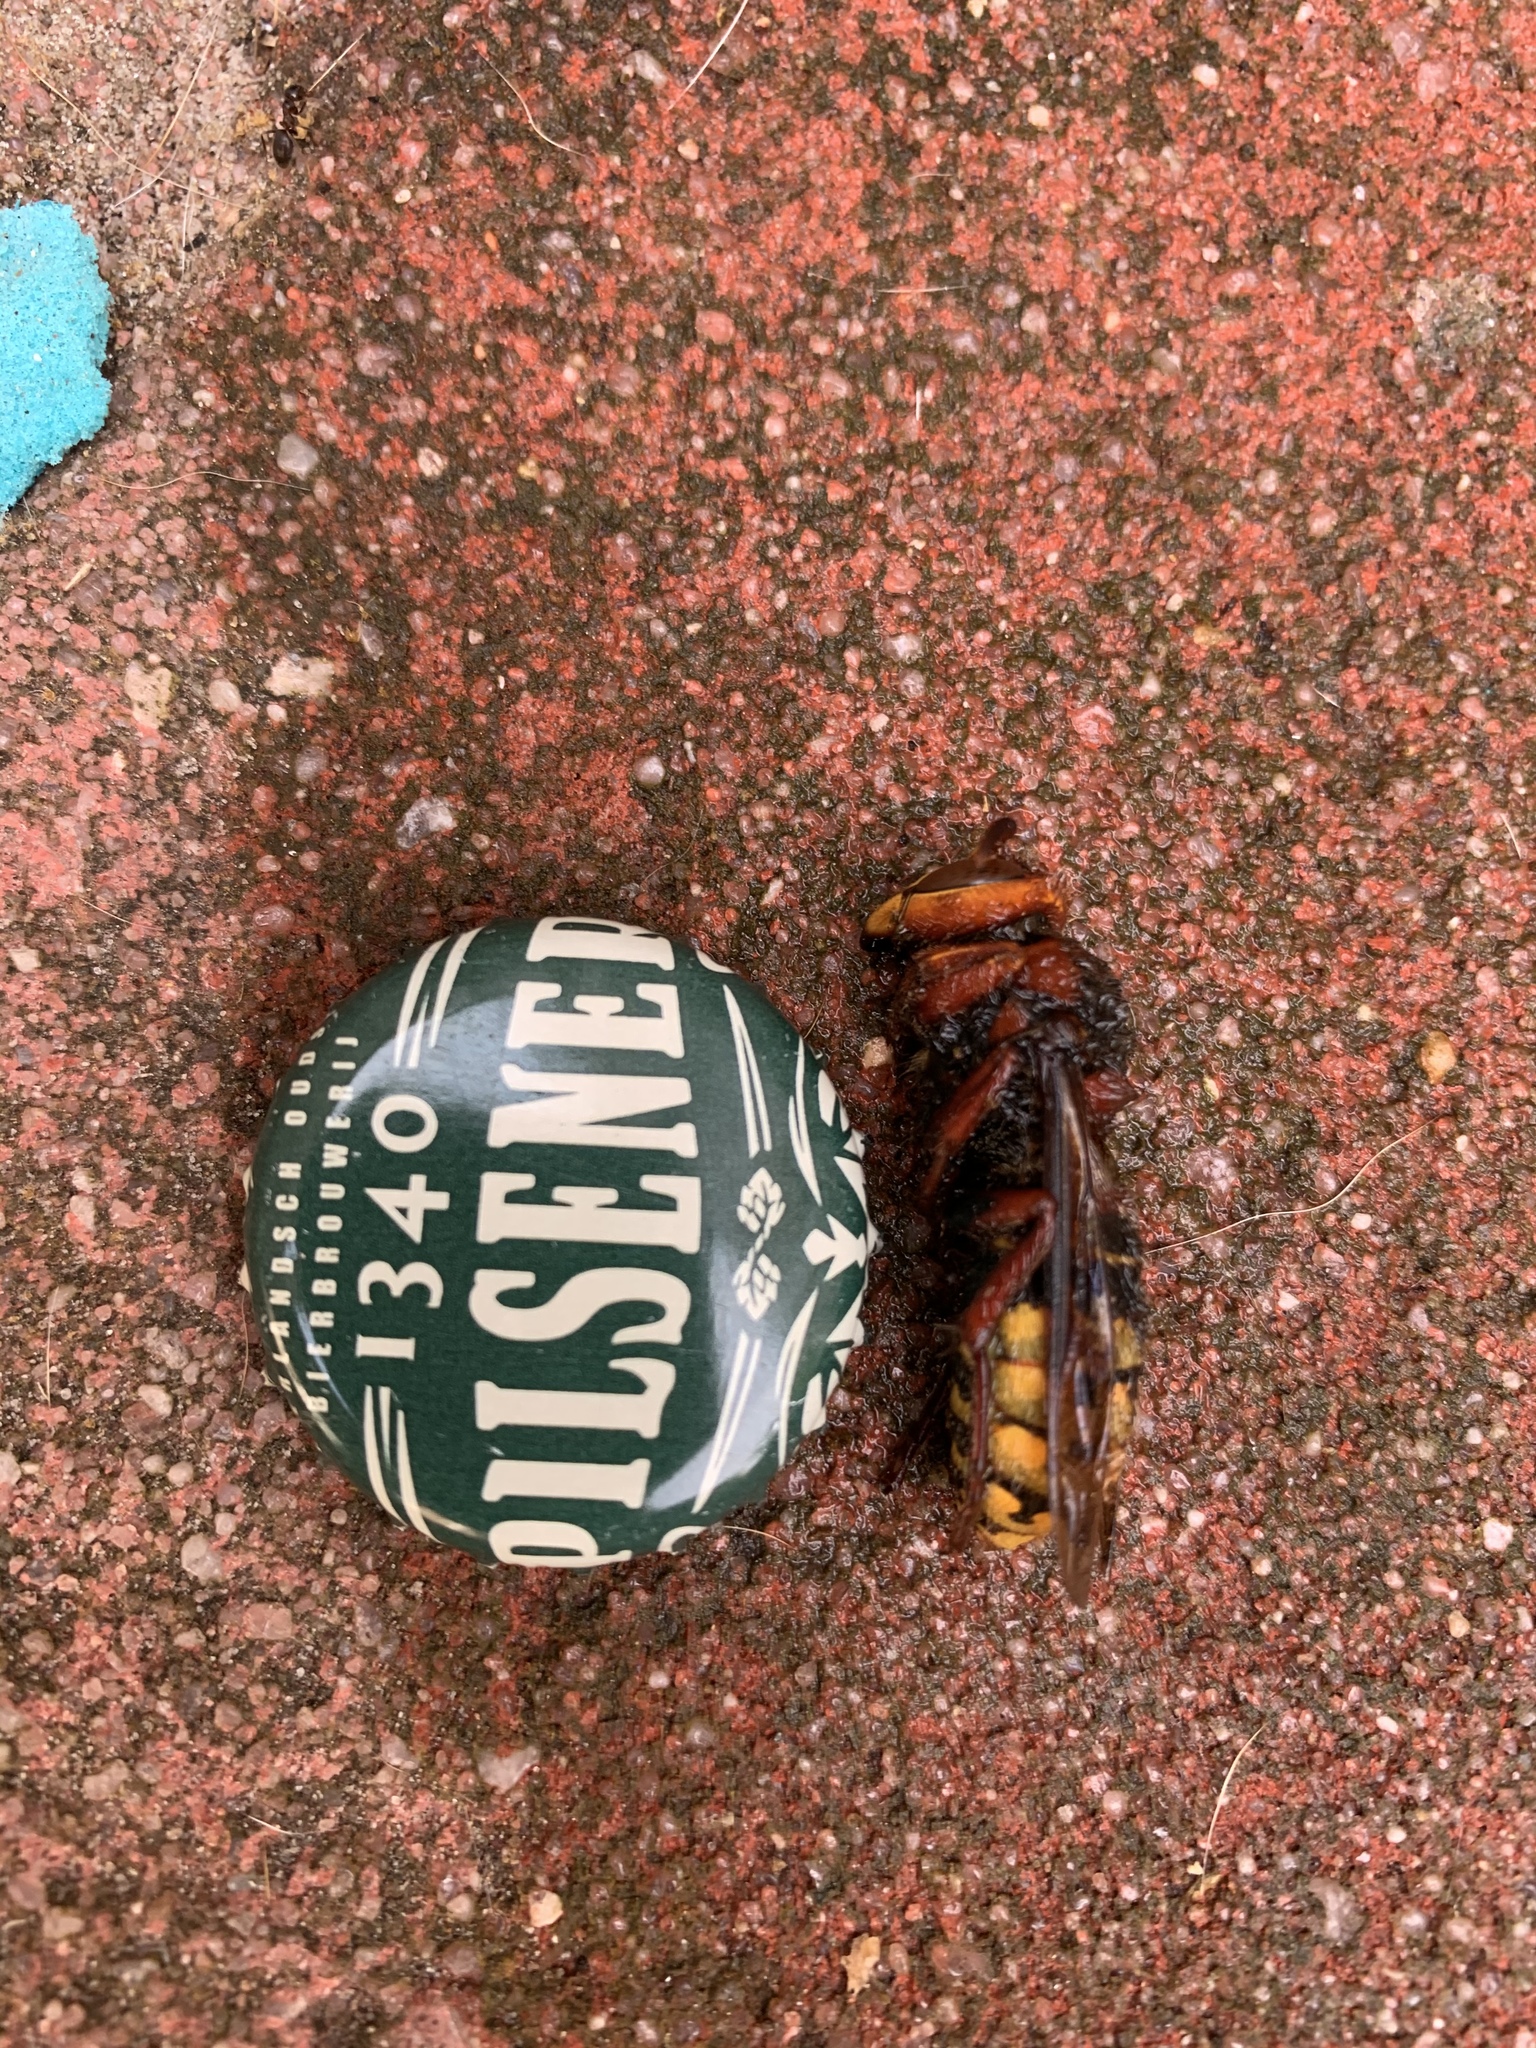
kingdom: Animalia
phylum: Arthropoda
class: Insecta
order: Hymenoptera
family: Vespidae
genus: Vespa
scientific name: Vespa crabro
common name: Hornet
